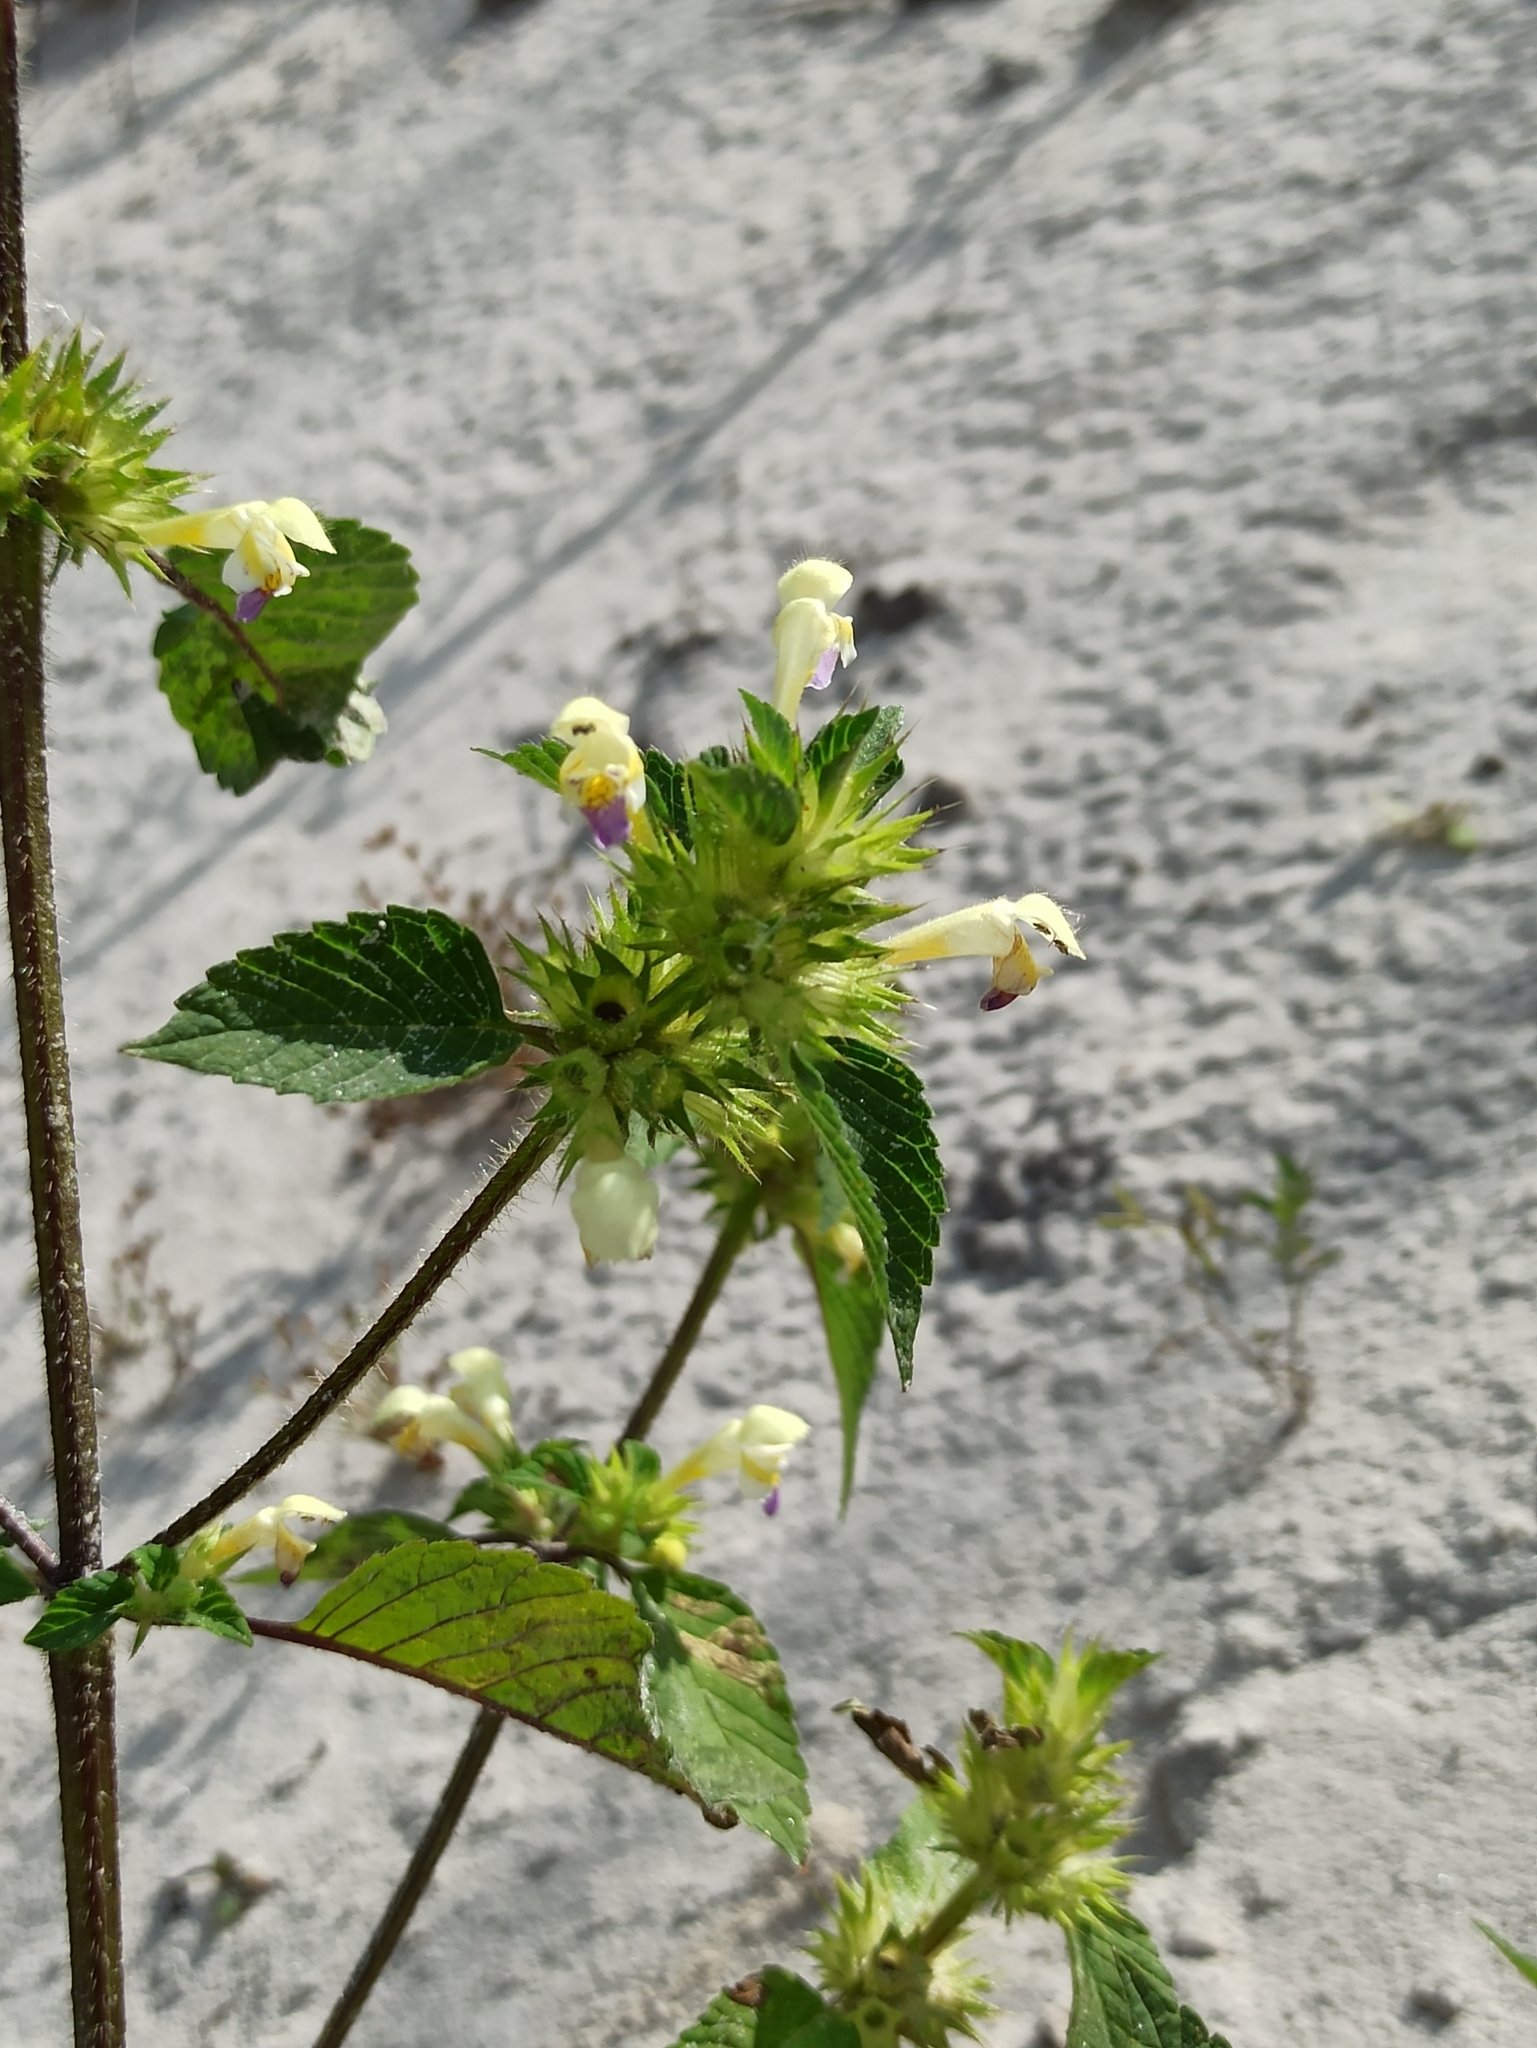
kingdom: Plantae
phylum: Tracheophyta
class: Magnoliopsida
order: Lamiales
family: Lamiaceae
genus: Galeopsis
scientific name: Galeopsis speciosa
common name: Large-flowered hemp-nettle
